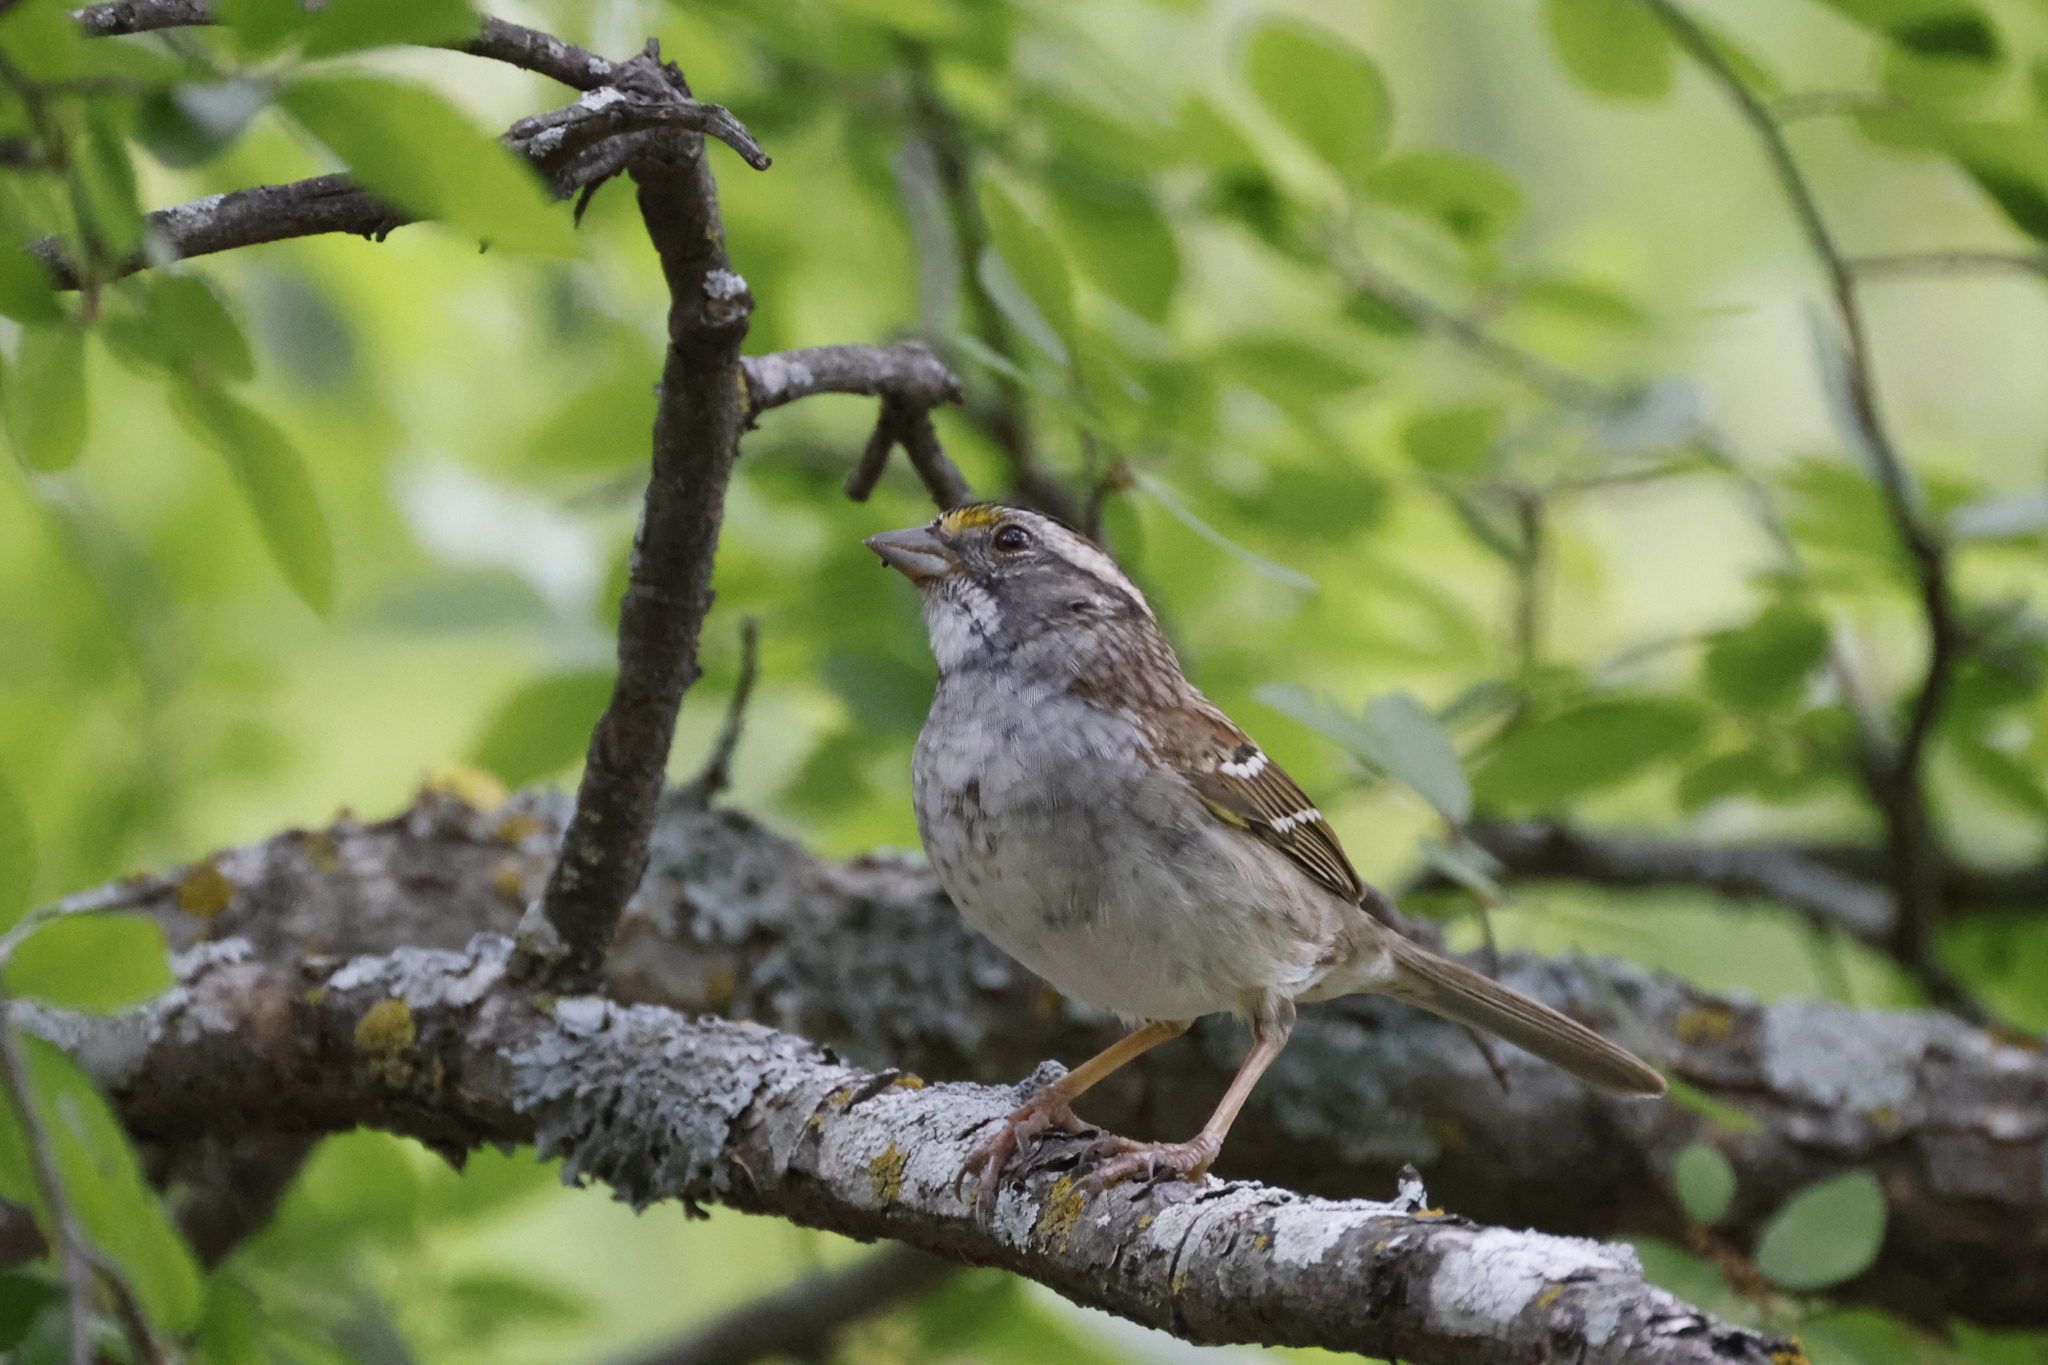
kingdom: Animalia
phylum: Chordata
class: Aves
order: Passeriformes
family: Passerellidae
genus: Zonotrichia
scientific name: Zonotrichia albicollis
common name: White-throated sparrow
